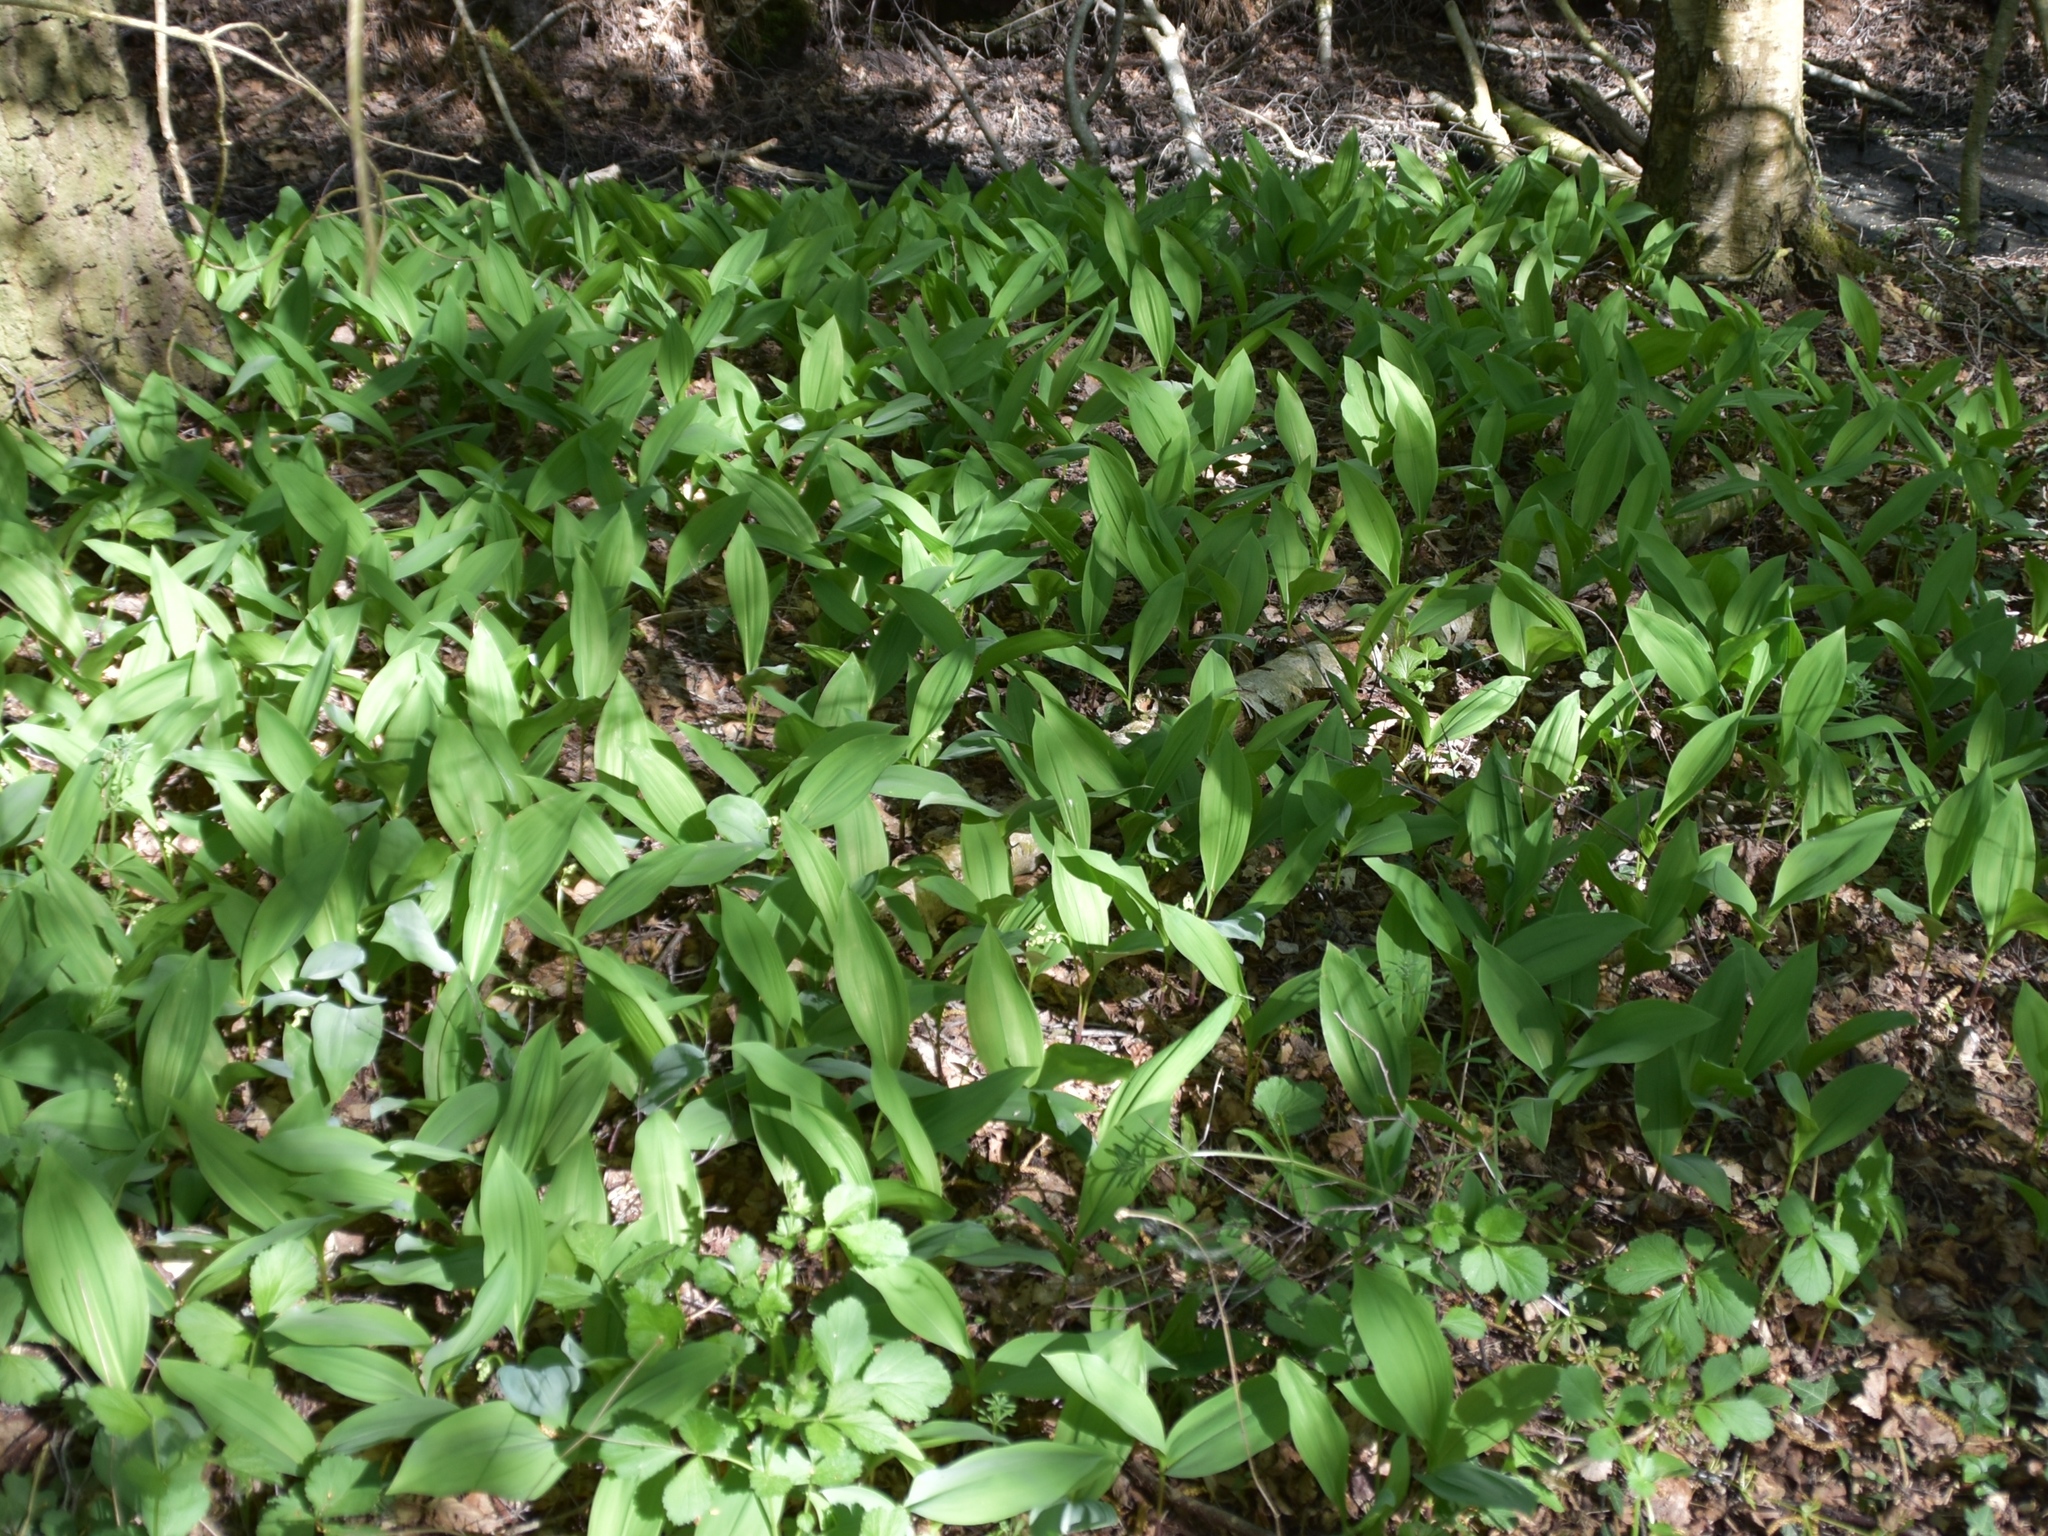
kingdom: Plantae
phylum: Tracheophyta
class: Liliopsida
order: Asparagales
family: Asparagaceae
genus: Convallaria
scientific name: Convallaria majalis
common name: Lily-of-the-valley
